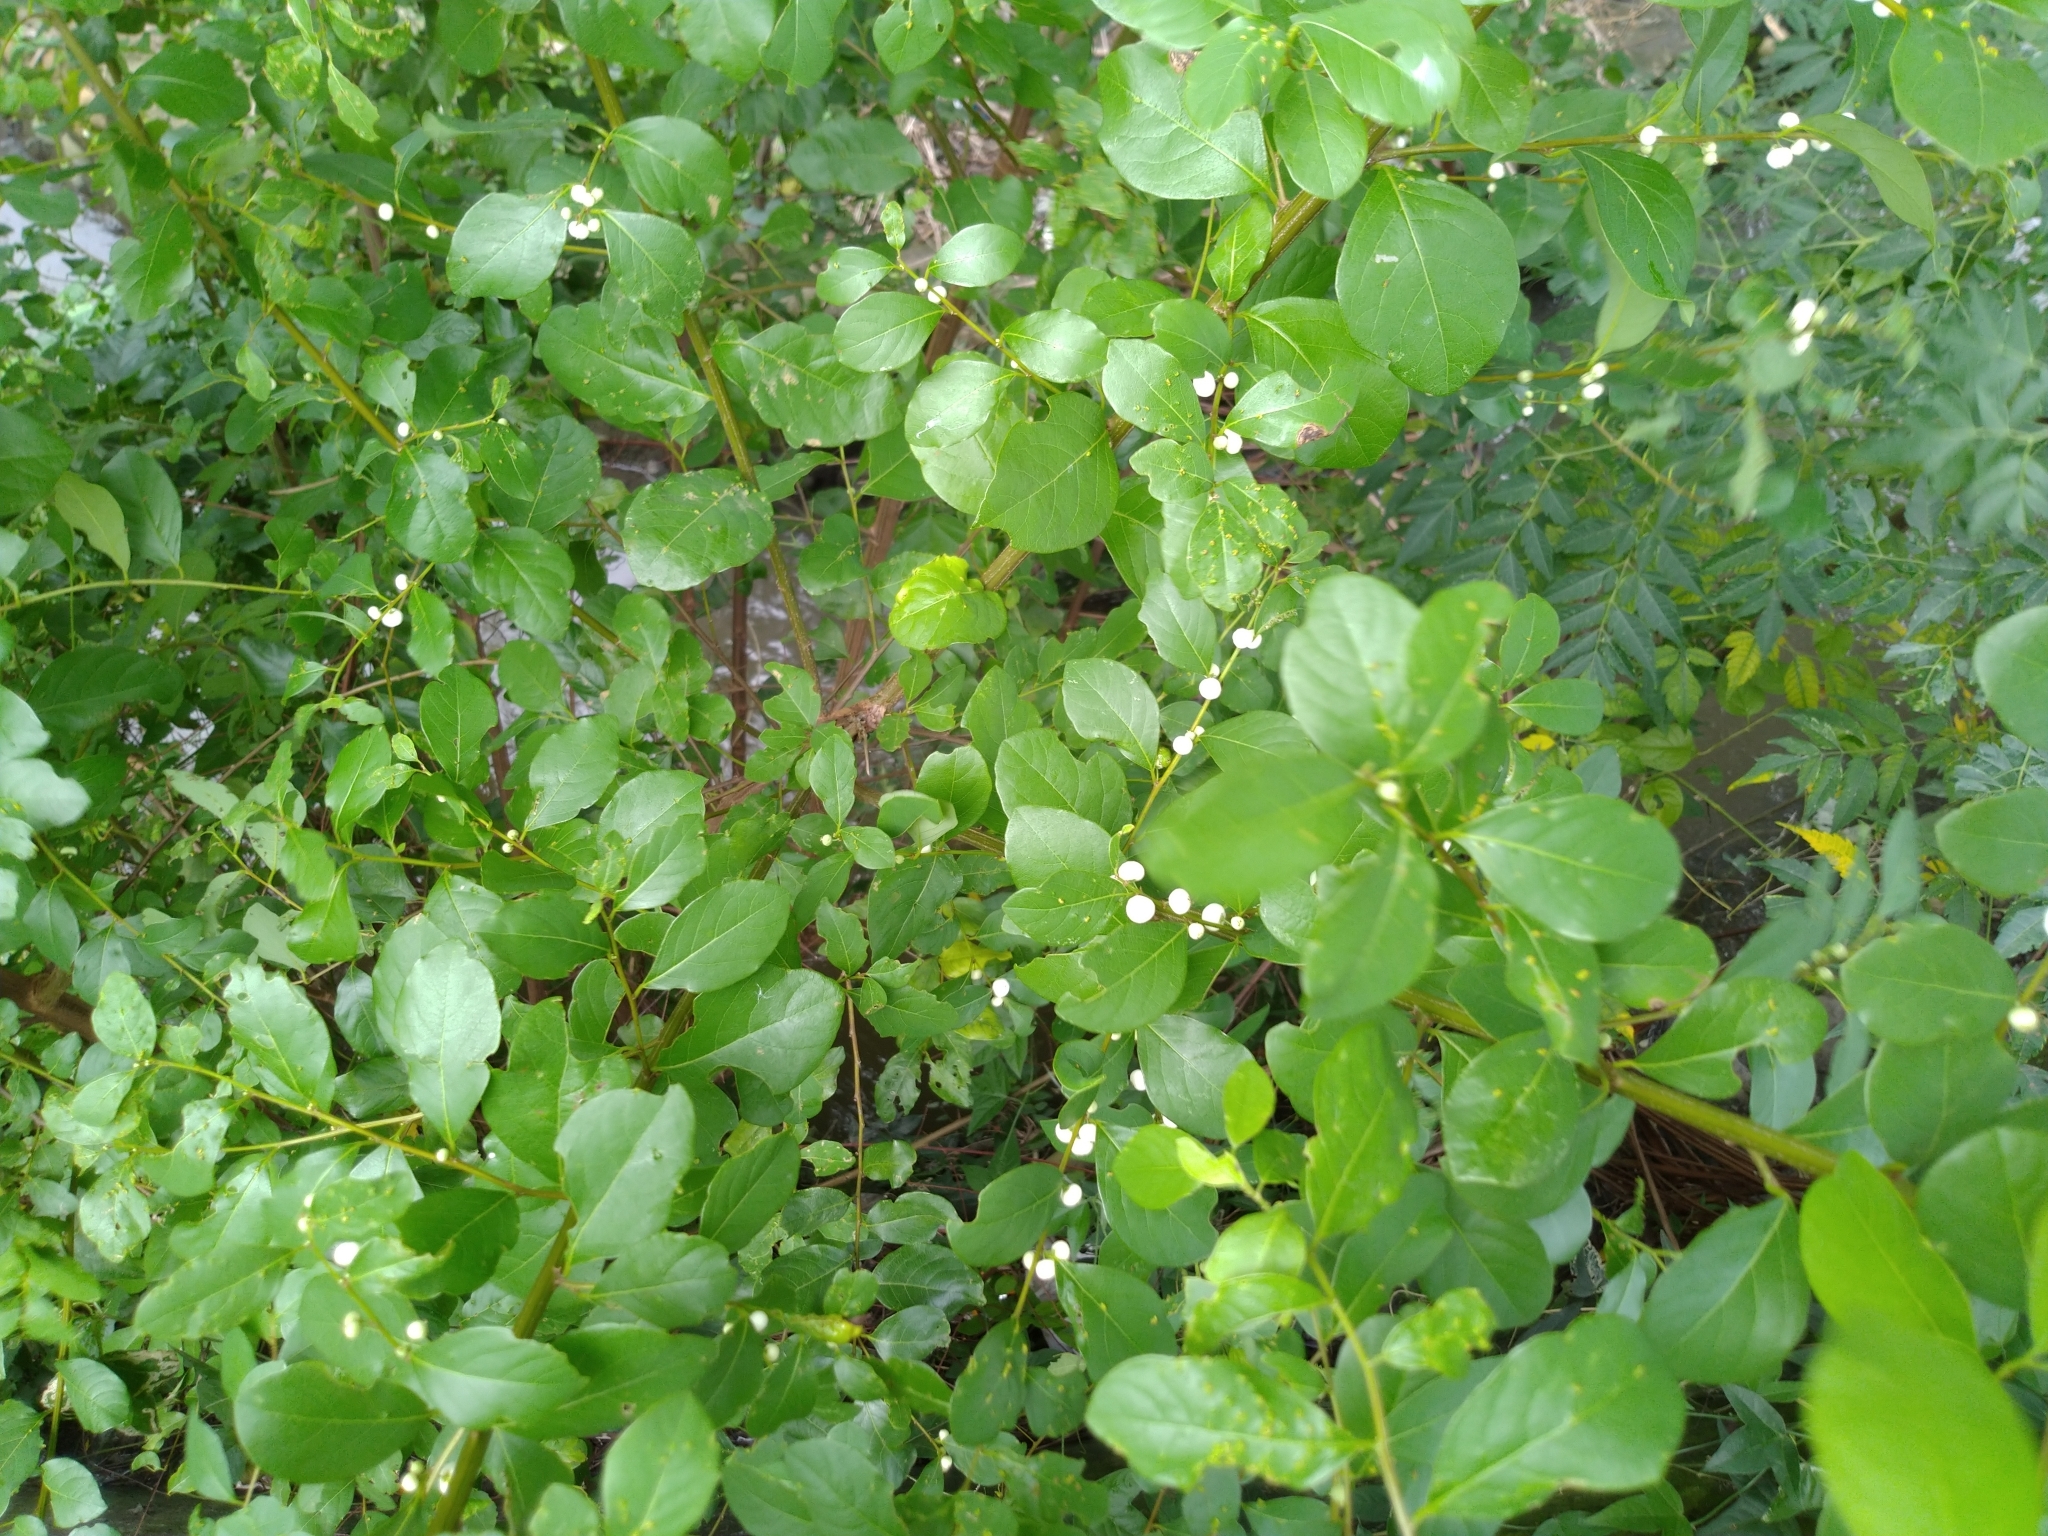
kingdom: Plantae
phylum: Tracheophyta
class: Magnoliopsida
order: Malpighiales
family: Phyllanthaceae
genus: Flueggea
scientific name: Flueggea virosa
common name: Common bushweed
